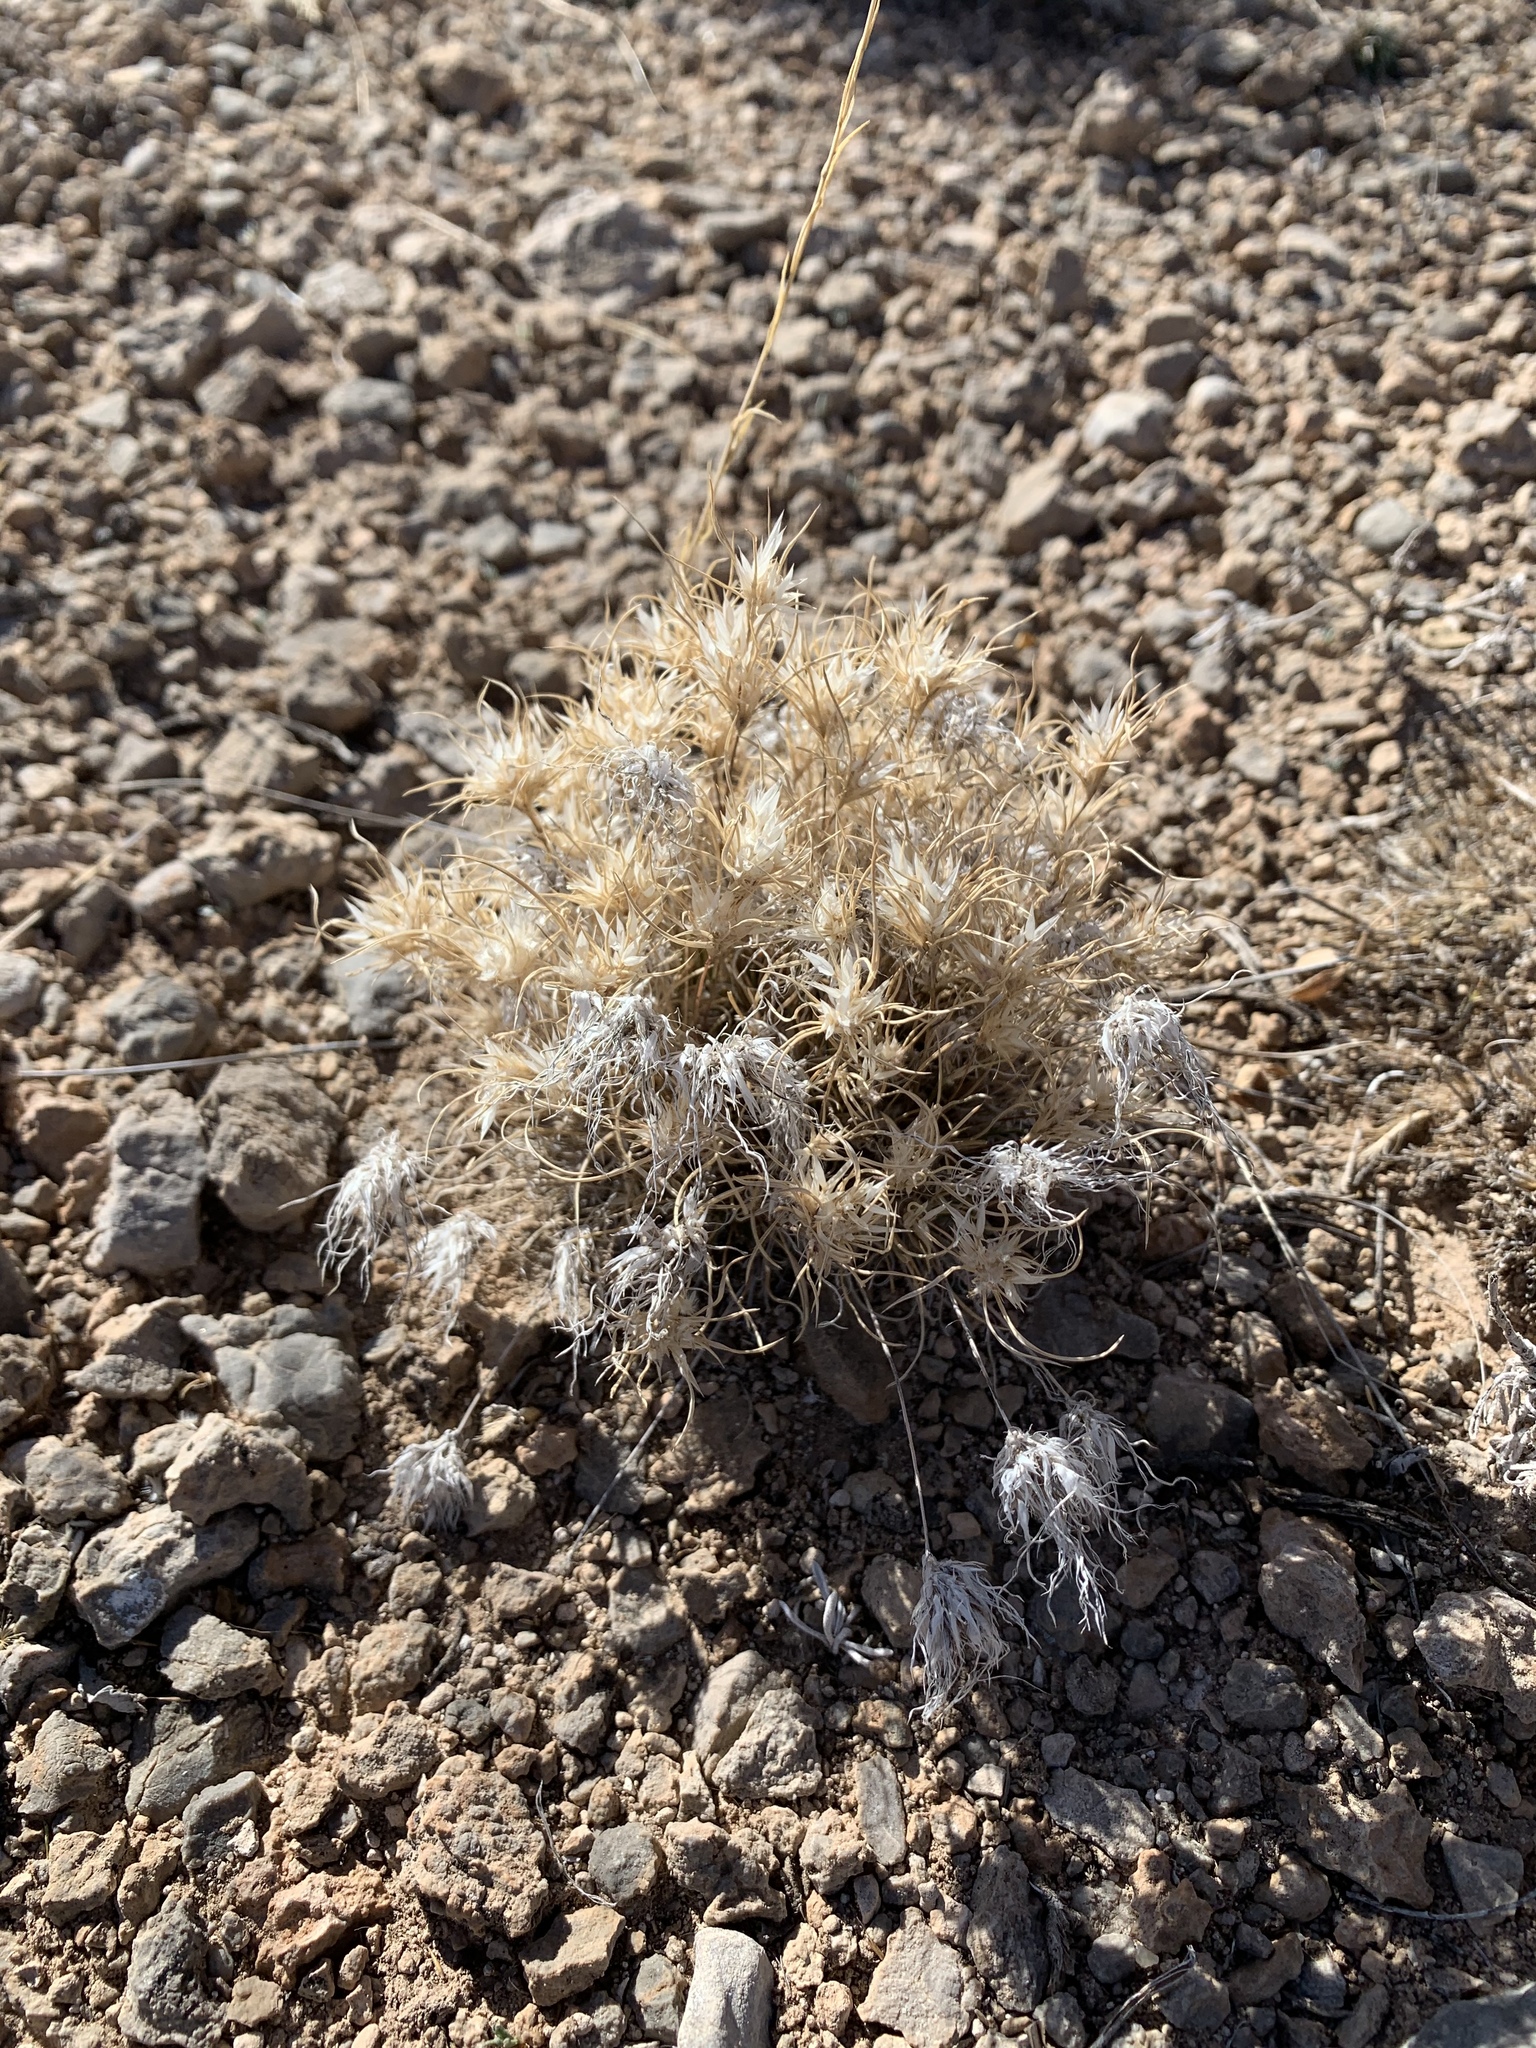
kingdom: Plantae
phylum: Tracheophyta
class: Liliopsida
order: Poales
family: Poaceae
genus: Dasyochloa
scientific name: Dasyochloa pulchella
